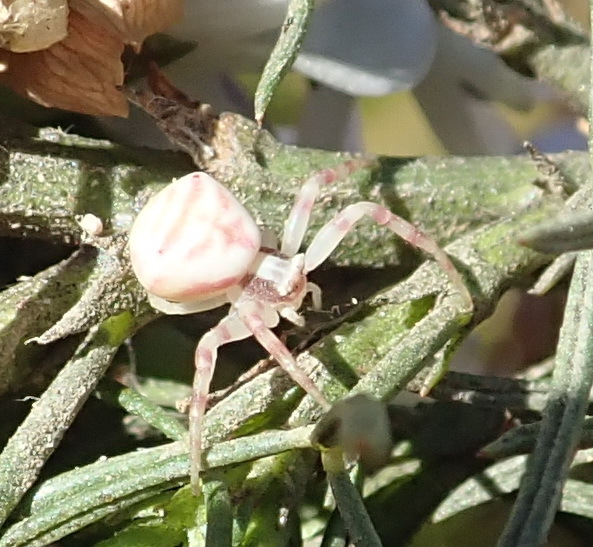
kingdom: Animalia
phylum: Arthropoda
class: Arachnida
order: Araneae
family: Thomisidae
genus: Thomisus
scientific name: Thomisus citrinellus
